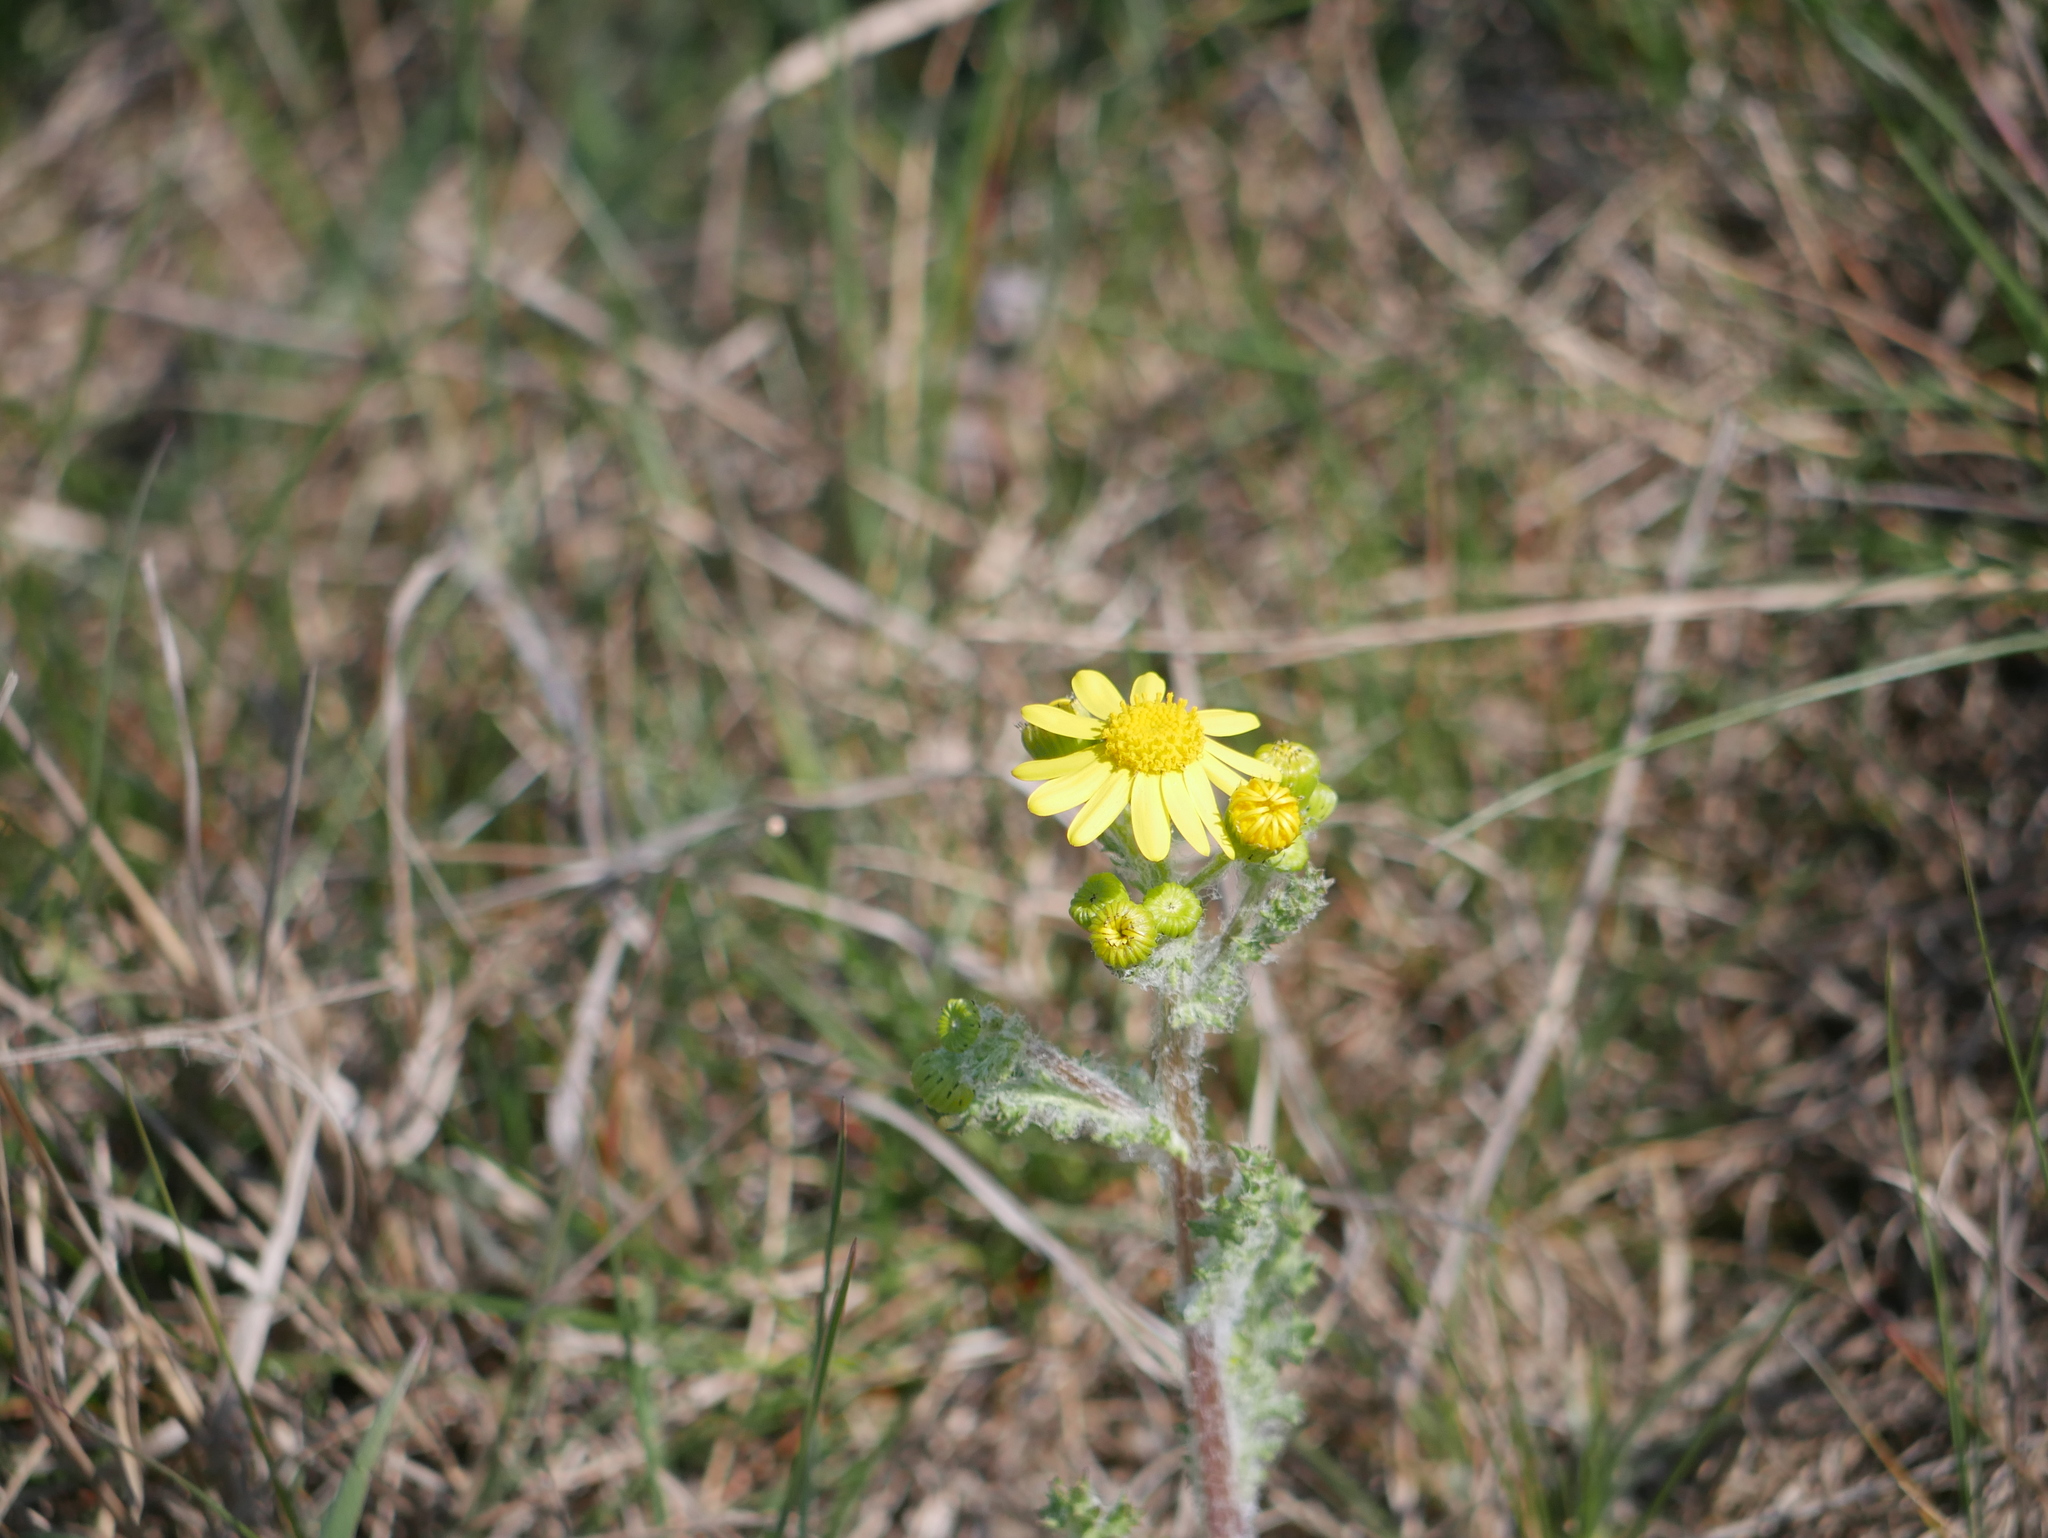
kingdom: Plantae
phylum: Tracheophyta
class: Magnoliopsida
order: Asterales
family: Asteraceae
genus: Senecio
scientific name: Senecio vernalis
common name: Eastern groundsel
